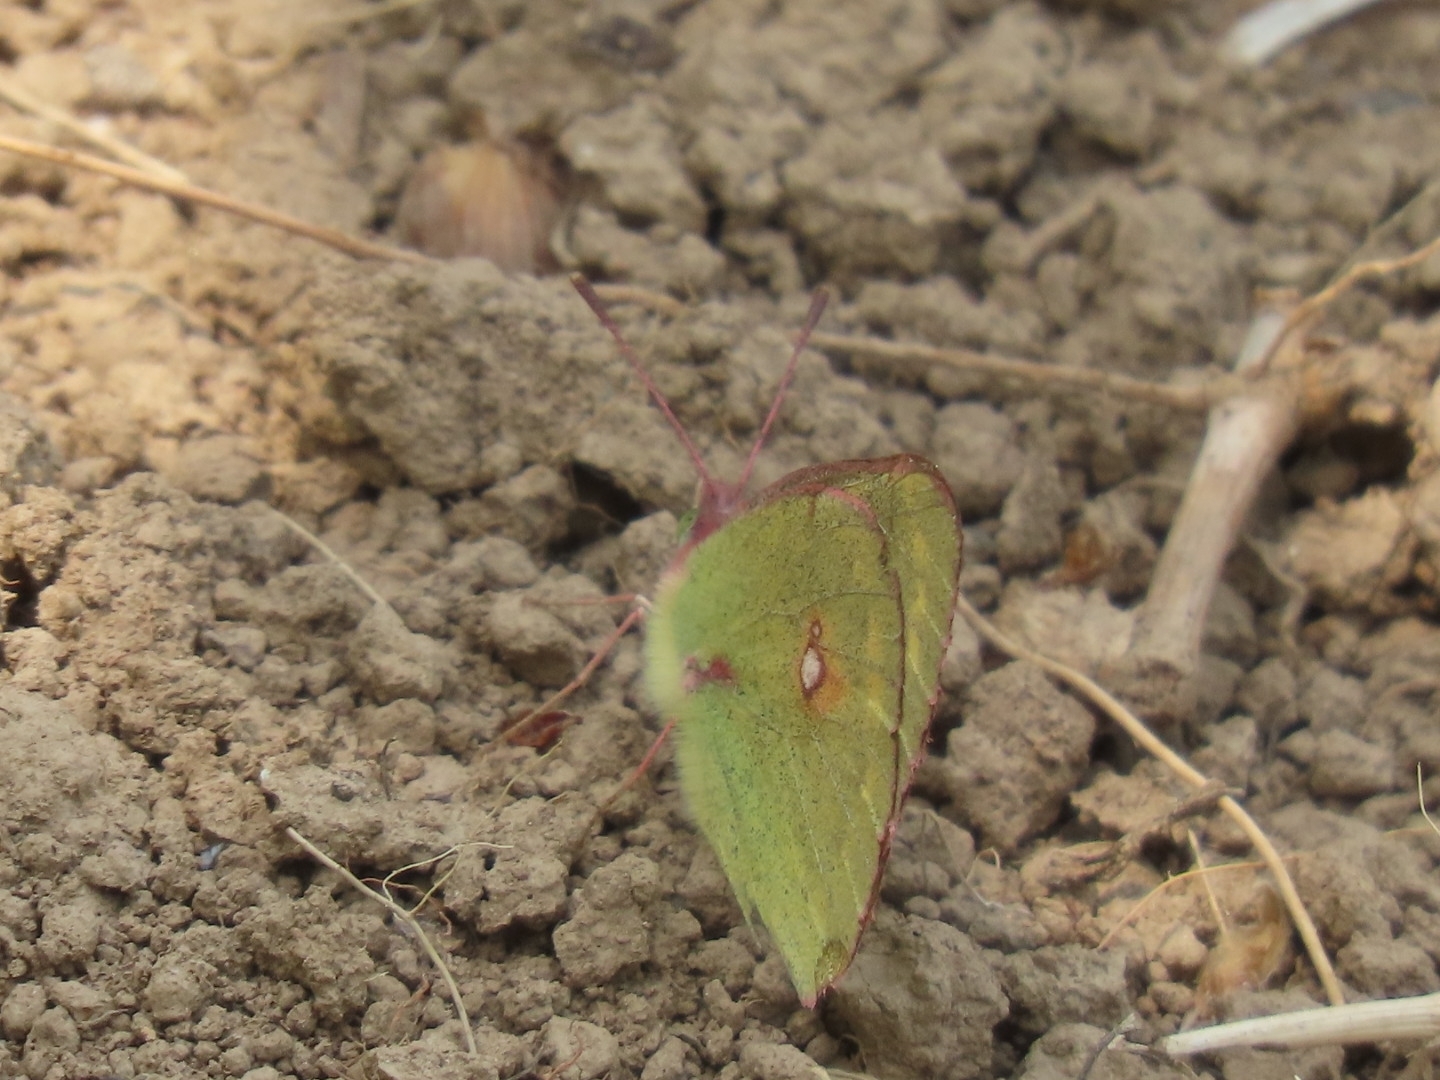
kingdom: Animalia
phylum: Arthropoda
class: Insecta
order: Lepidoptera
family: Pieridae
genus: Colias
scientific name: Colias fieldii
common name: Dark clouded yellow
